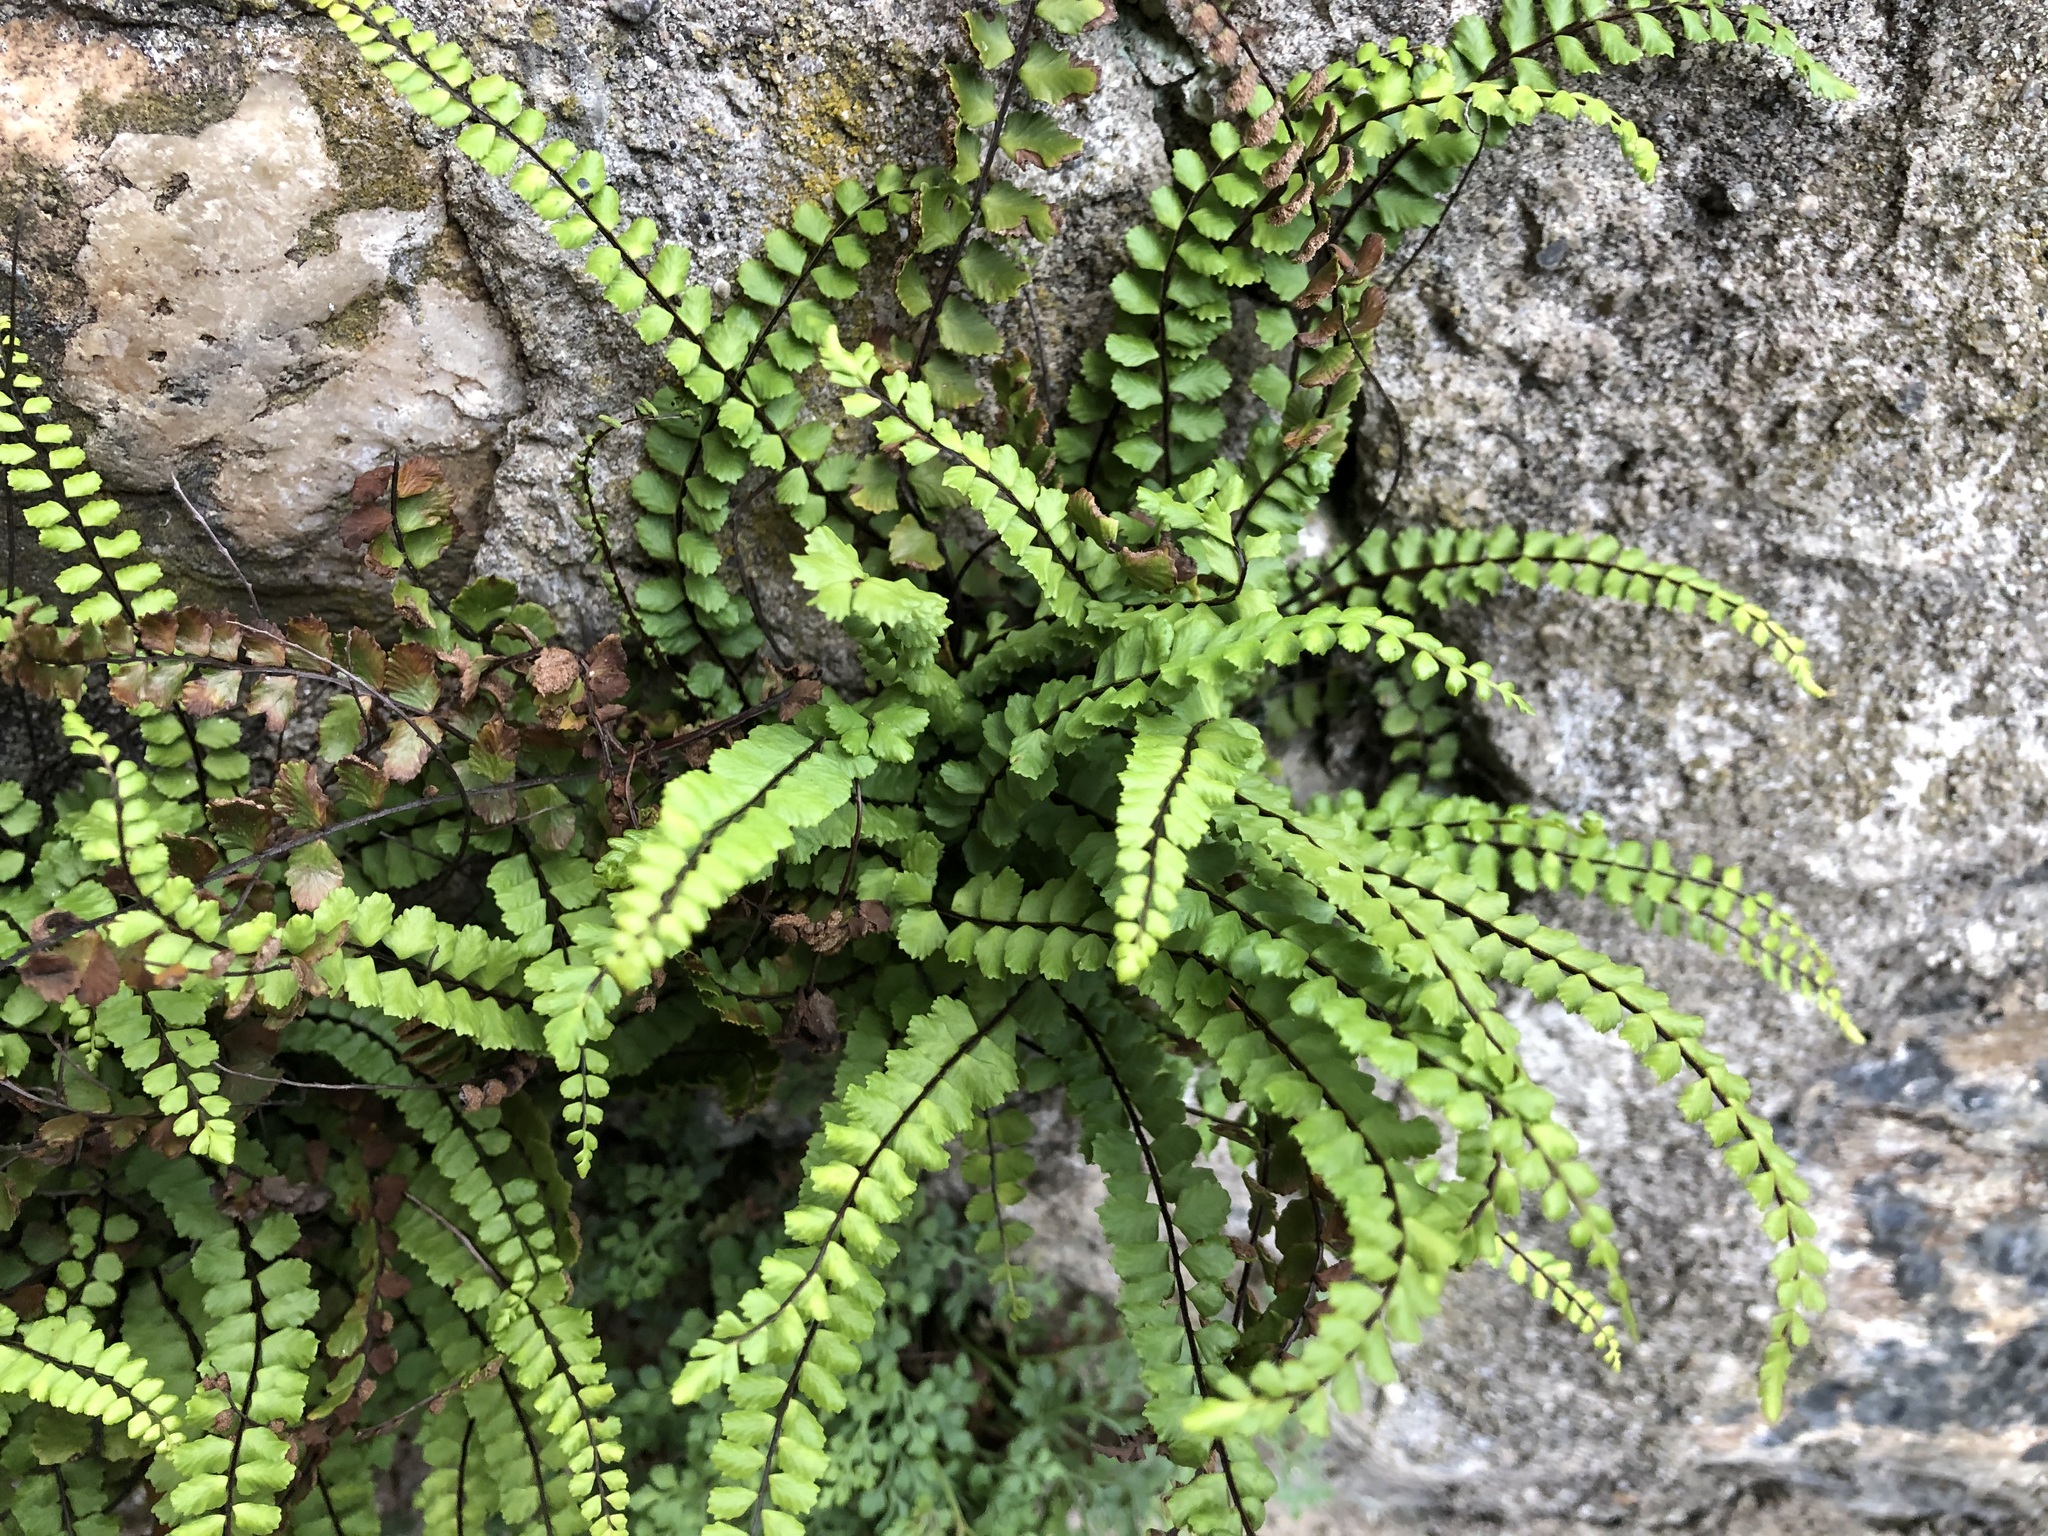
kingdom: Plantae
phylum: Tracheophyta
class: Polypodiopsida
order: Polypodiales
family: Aspleniaceae
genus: Asplenium
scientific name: Asplenium trichomanes
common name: Maidenhair spleenwort
